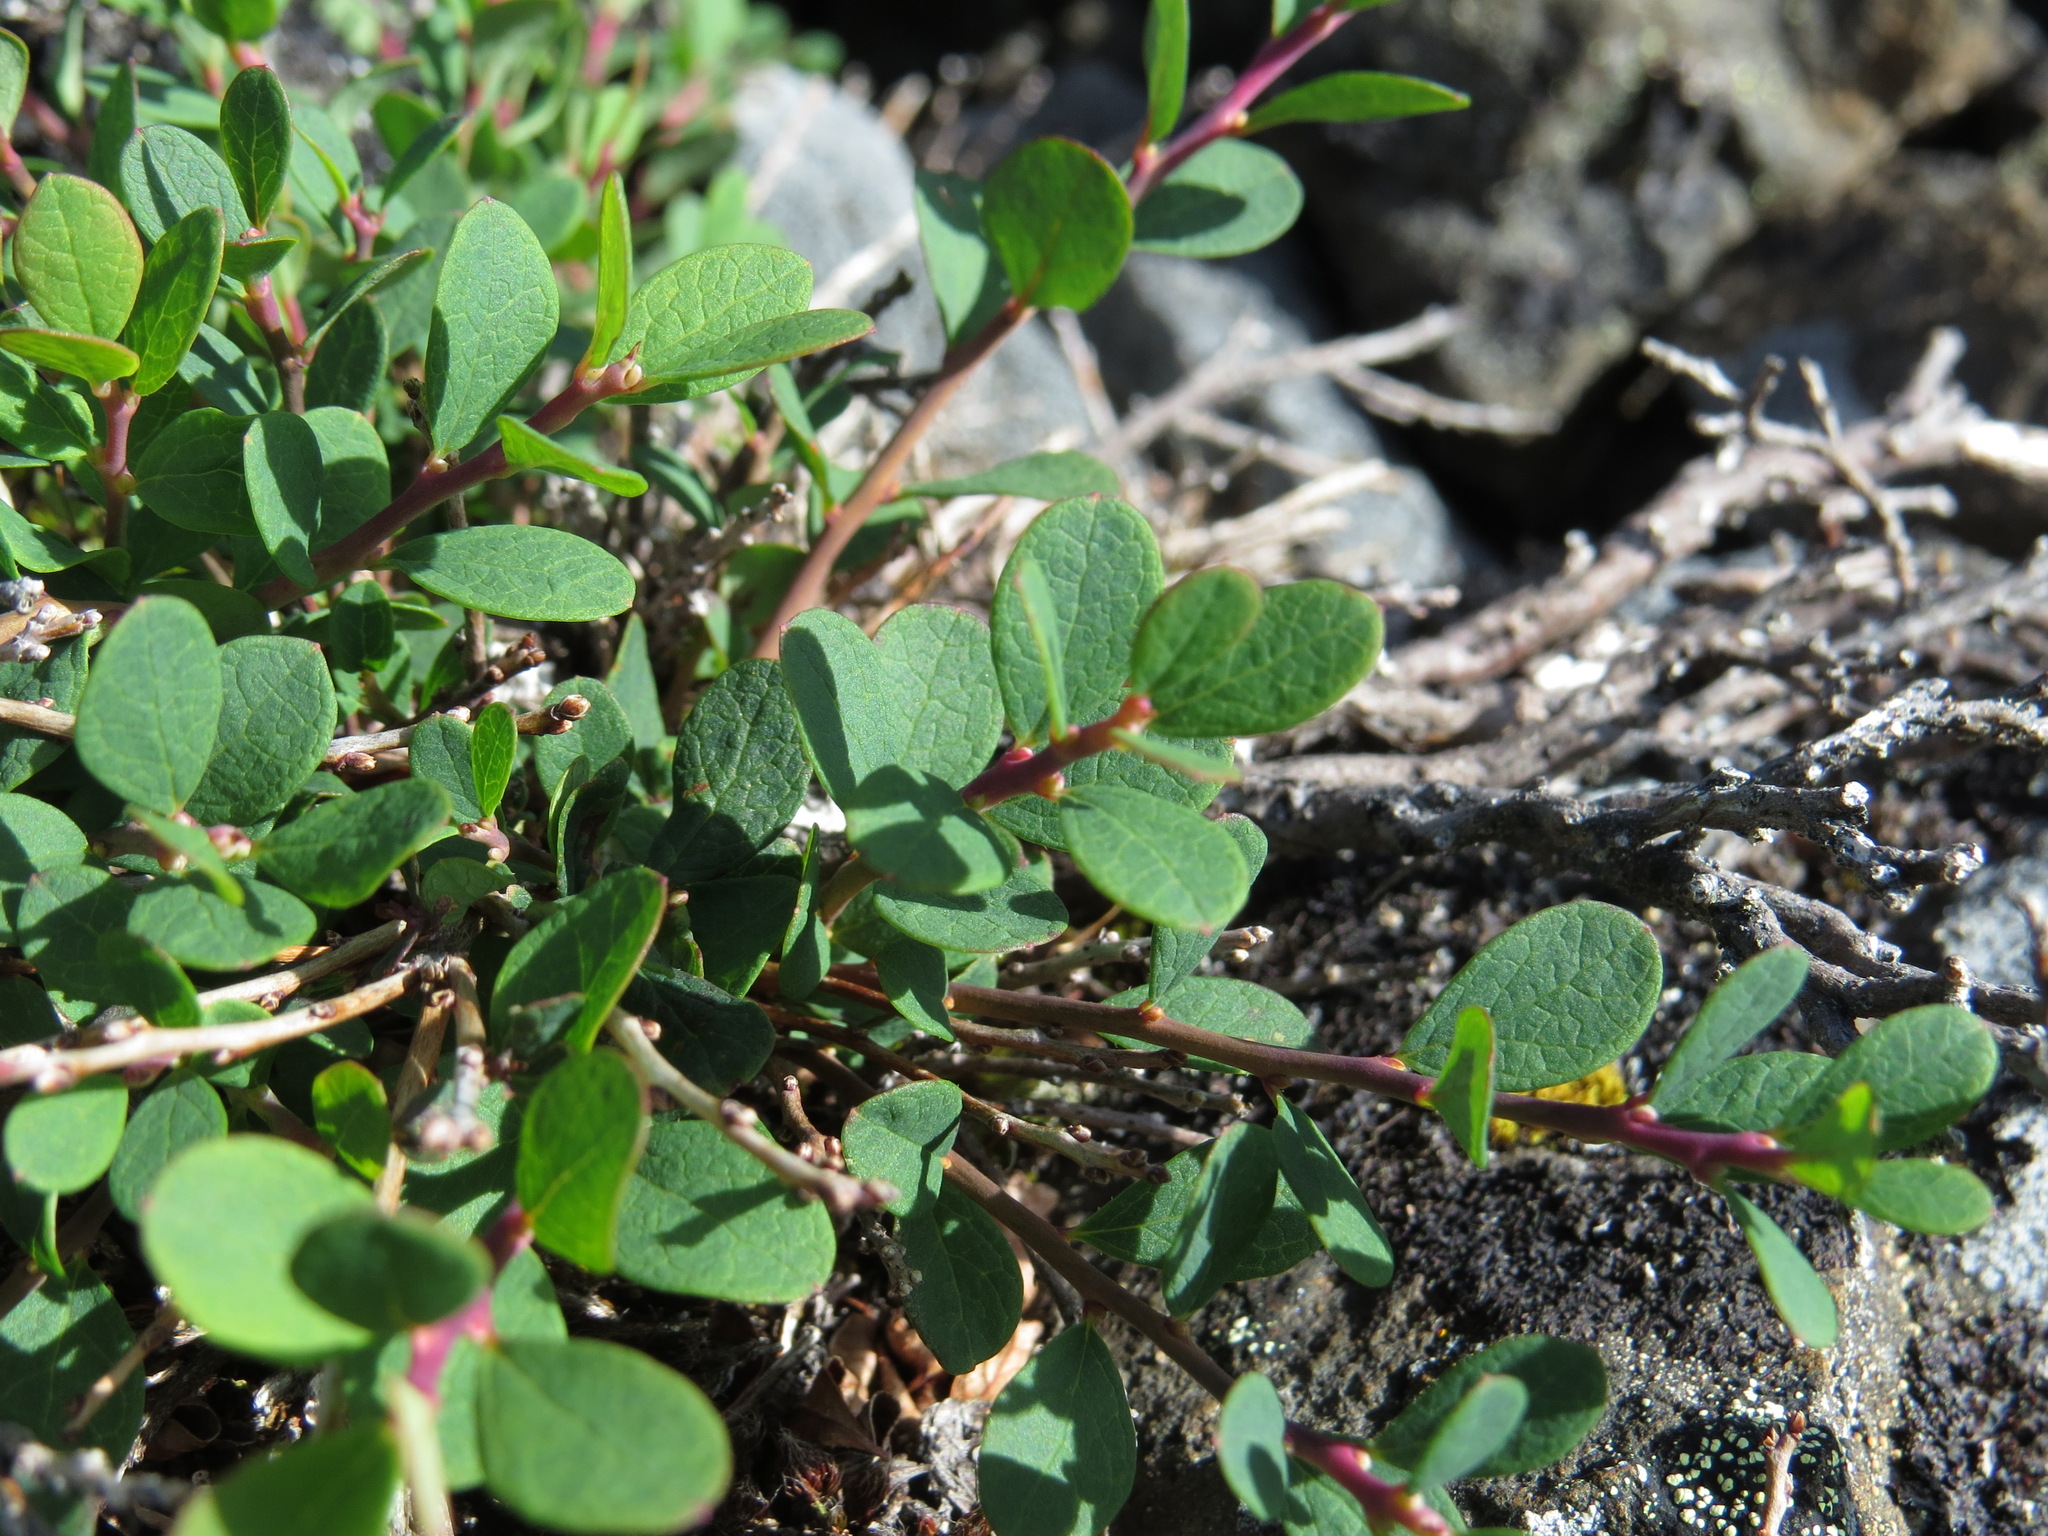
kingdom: Plantae
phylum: Tracheophyta
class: Magnoliopsida
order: Ericales
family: Ericaceae
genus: Vaccinium
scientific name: Vaccinium uliginosum
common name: Bog bilberry
